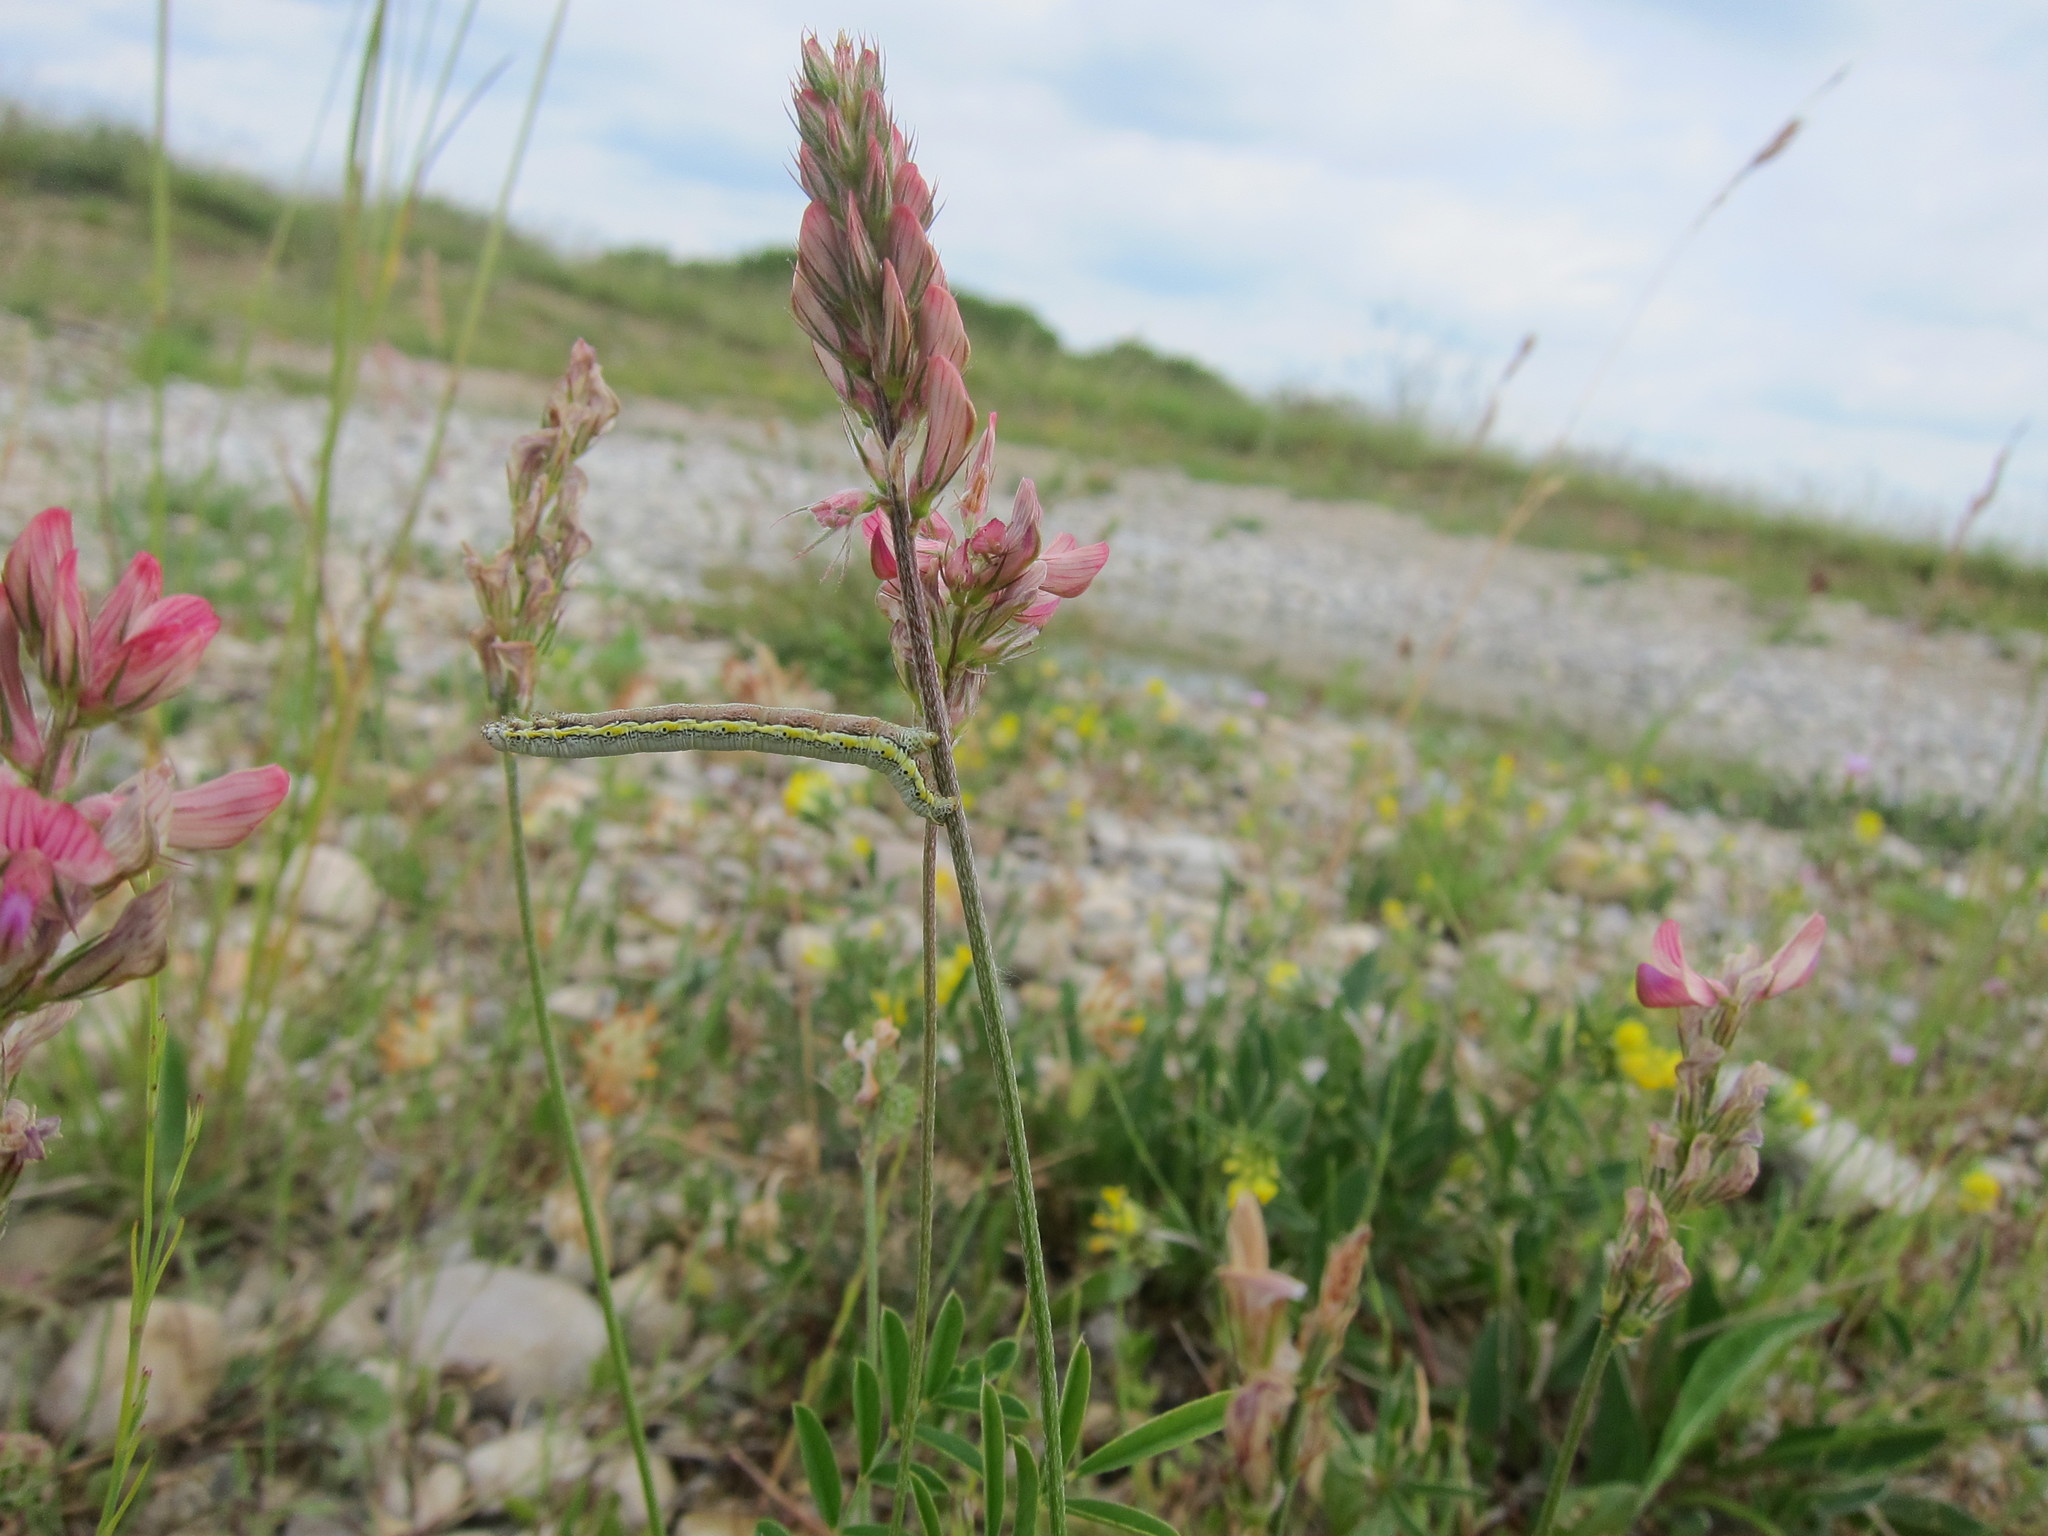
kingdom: Animalia
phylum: Arthropoda
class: Insecta
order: Lepidoptera
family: Geometridae
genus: Lycia
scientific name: Lycia zonaria
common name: Belted beauty
